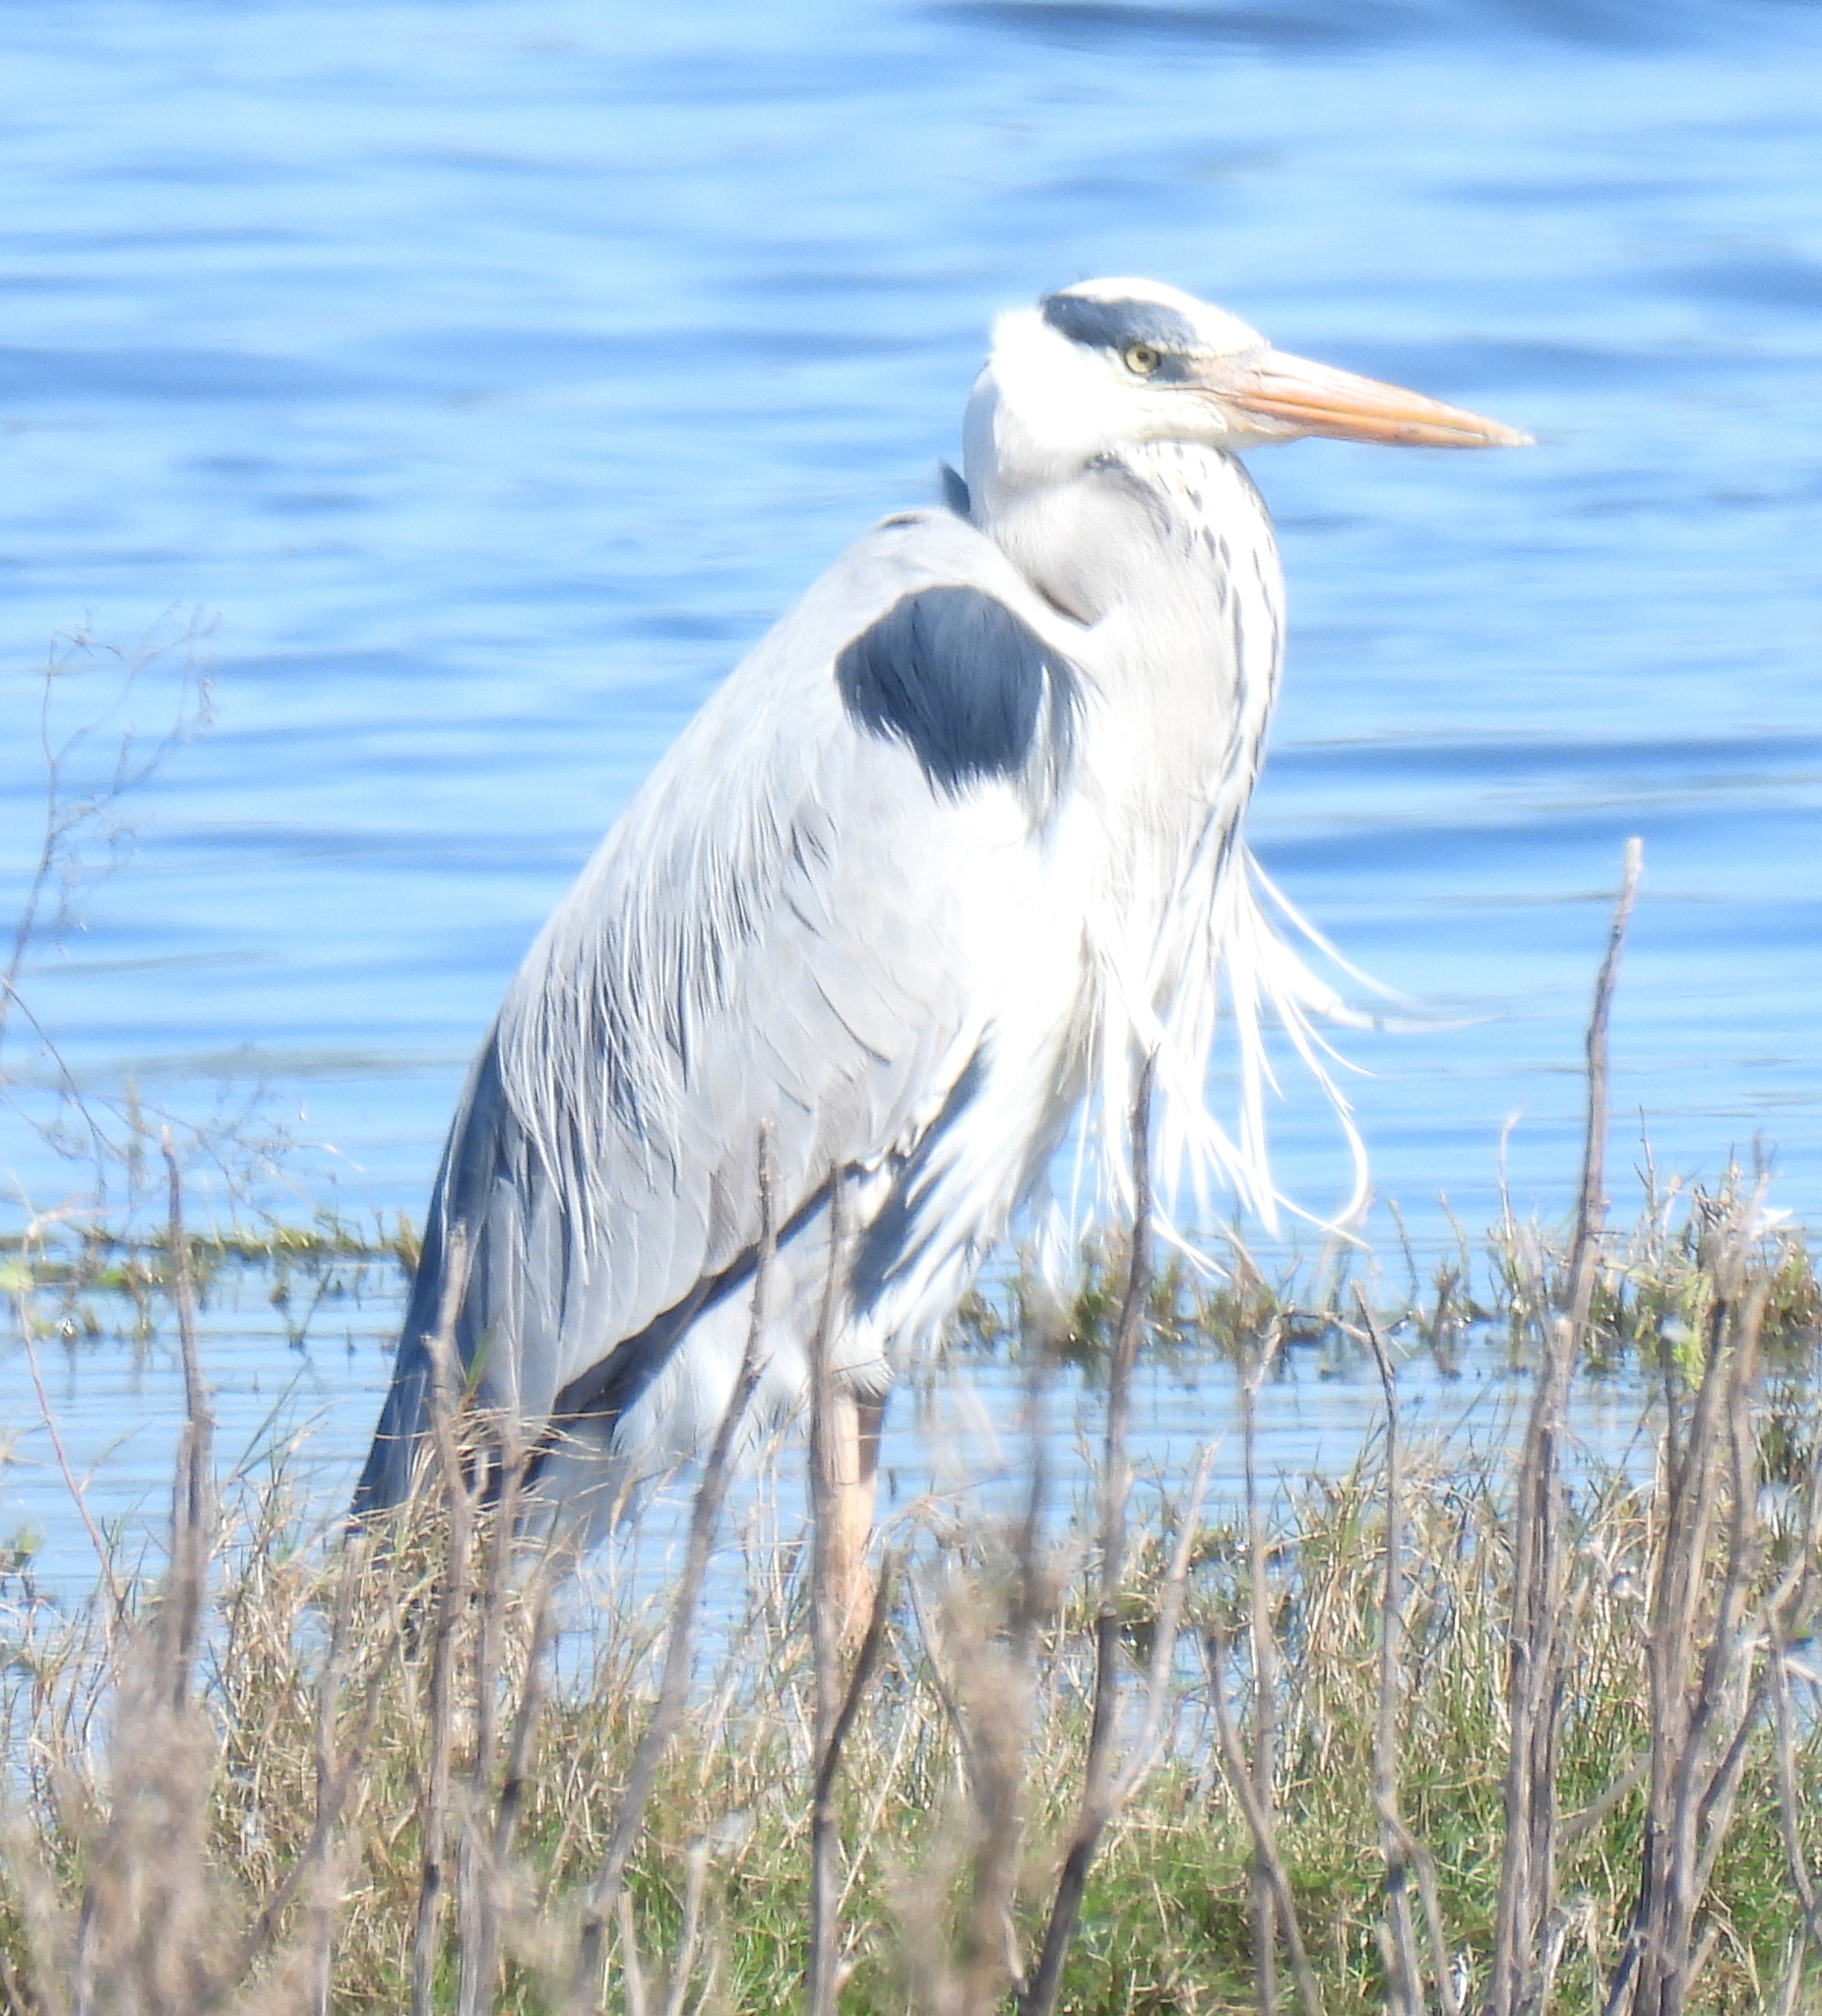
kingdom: Animalia
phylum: Chordata
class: Aves
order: Pelecaniformes
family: Ardeidae
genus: Ardea
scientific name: Ardea cinerea
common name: Grey heron
